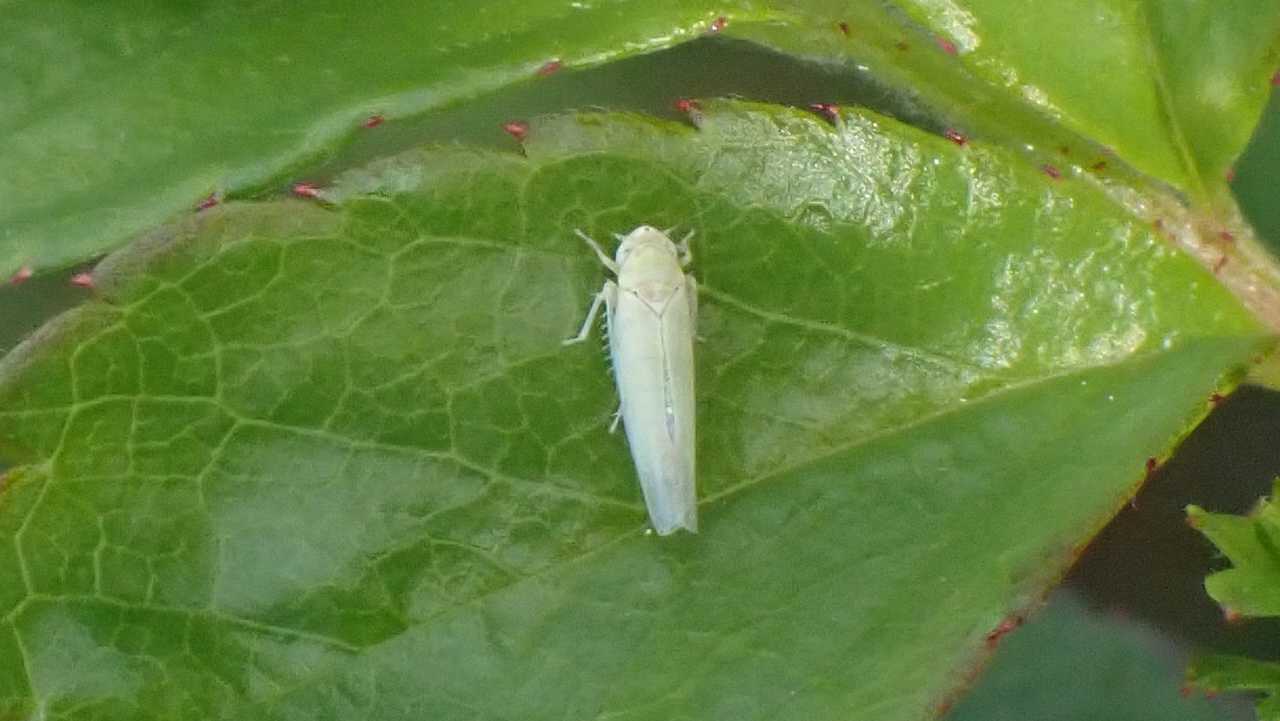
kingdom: Animalia
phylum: Arthropoda
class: Insecta
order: Hemiptera
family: Cicadellidae
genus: Zygina
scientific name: Zygina nivea
